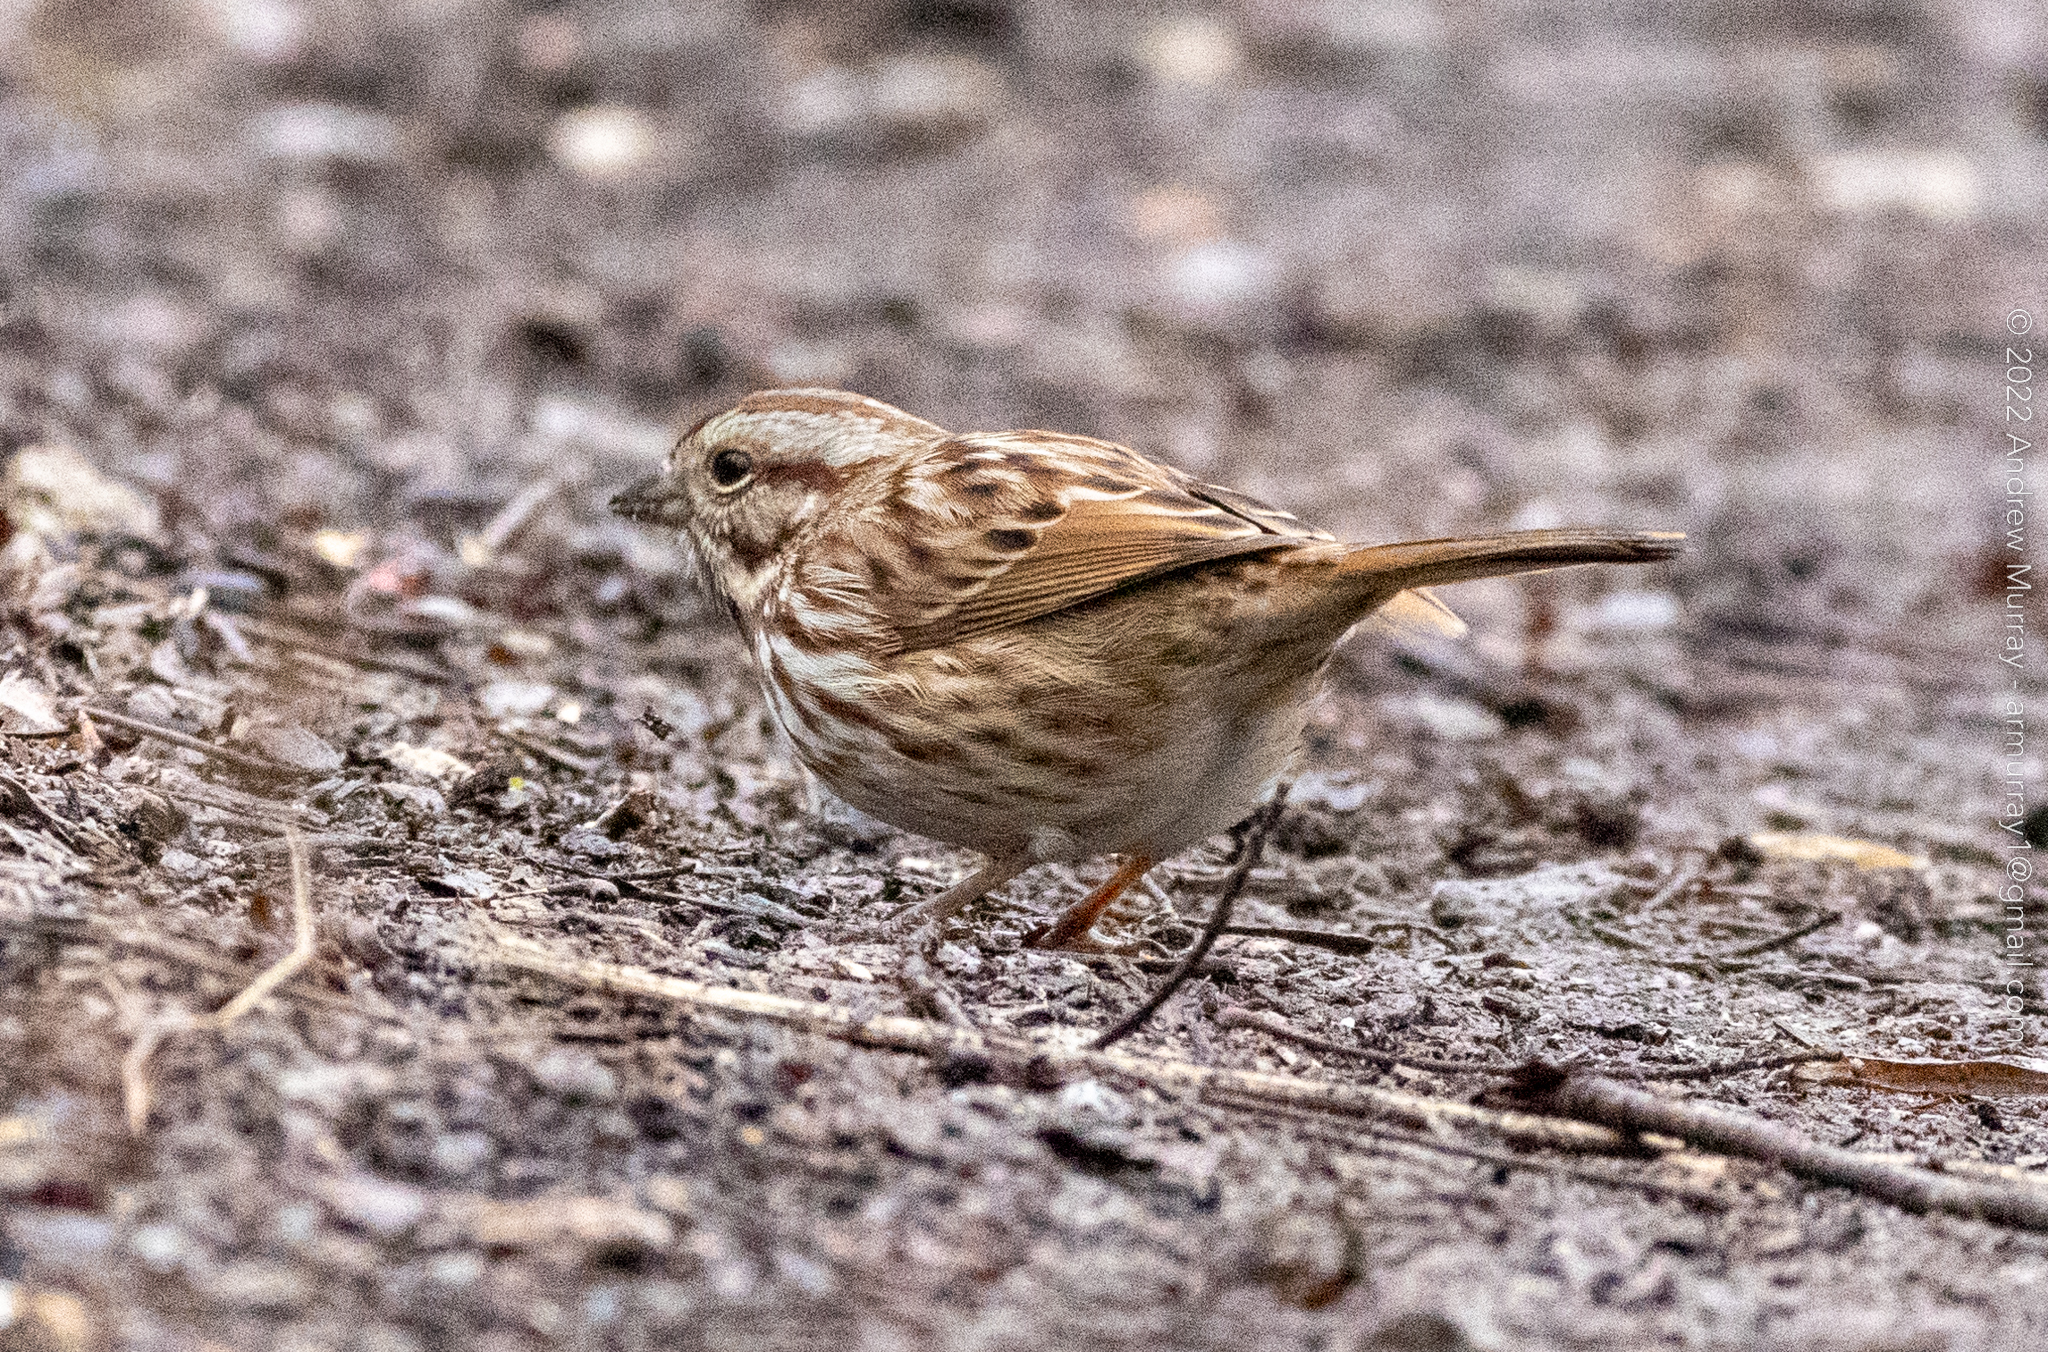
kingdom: Animalia
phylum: Chordata
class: Aves
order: Passeriformes
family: Passerellidae
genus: Melospiza
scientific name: Melospiza melodia
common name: Song sparrow
